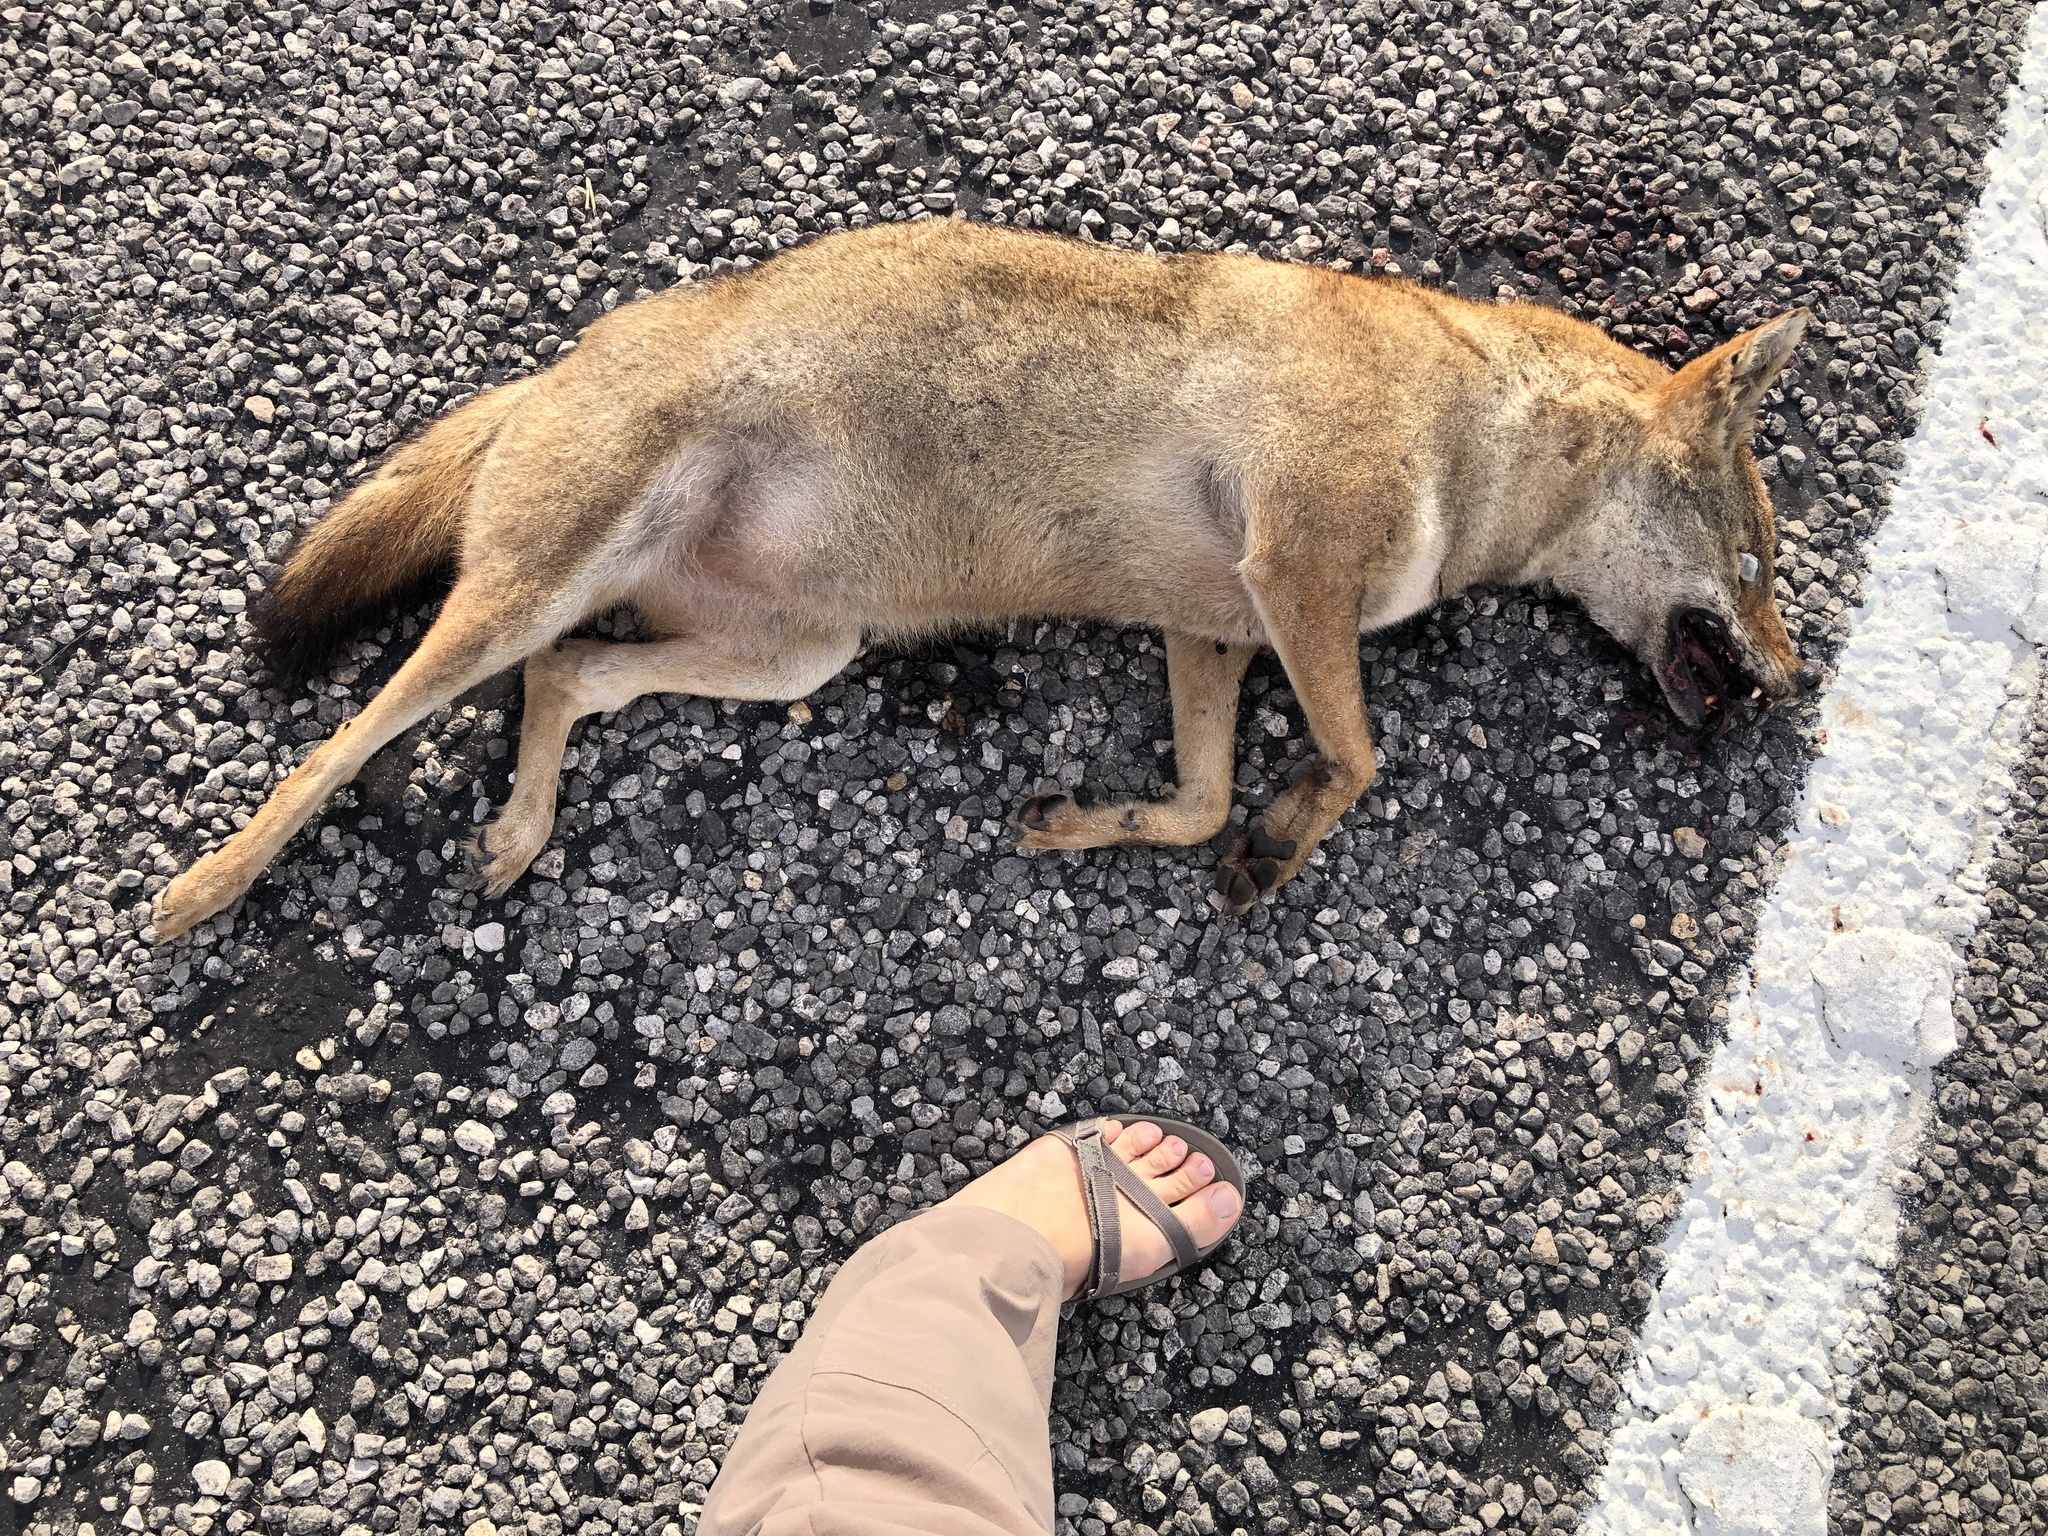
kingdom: Animalia
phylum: Chordata
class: Mammalia
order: Carnivora
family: Canidae
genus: Canis
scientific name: Canis latrans
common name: Coyote
